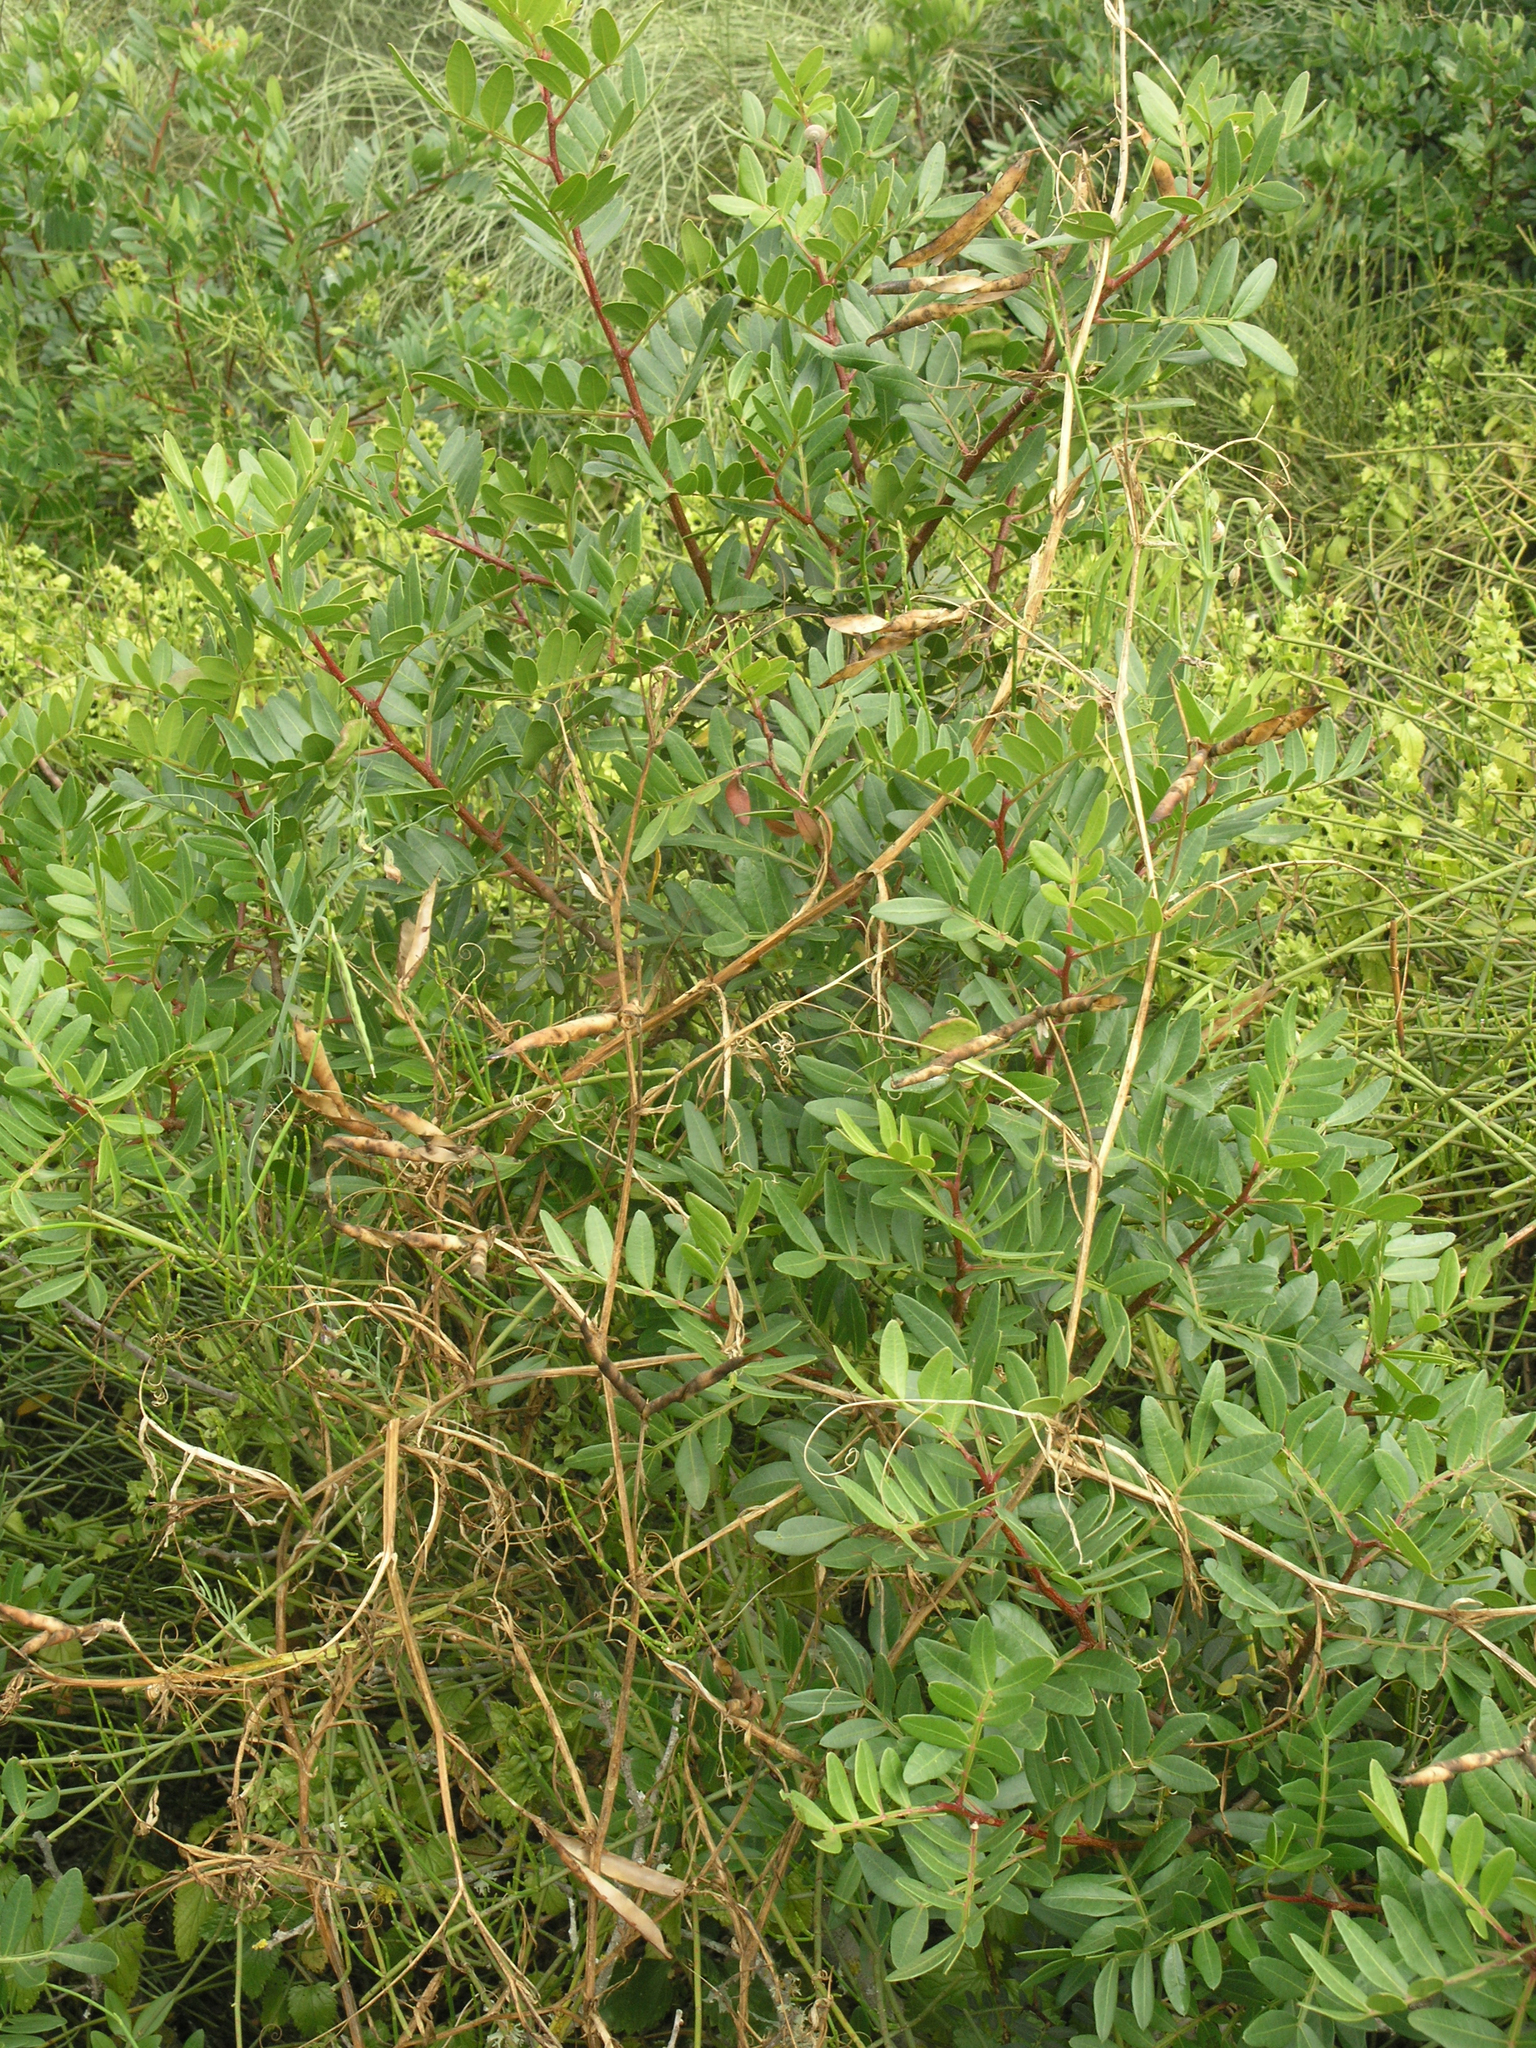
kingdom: Plantae
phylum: Tracheophyta
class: Magnoliopsida
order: Sapindales
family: Anacardiaceae
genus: Pistacia
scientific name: Pistacia lentiscus
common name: Lentisk
